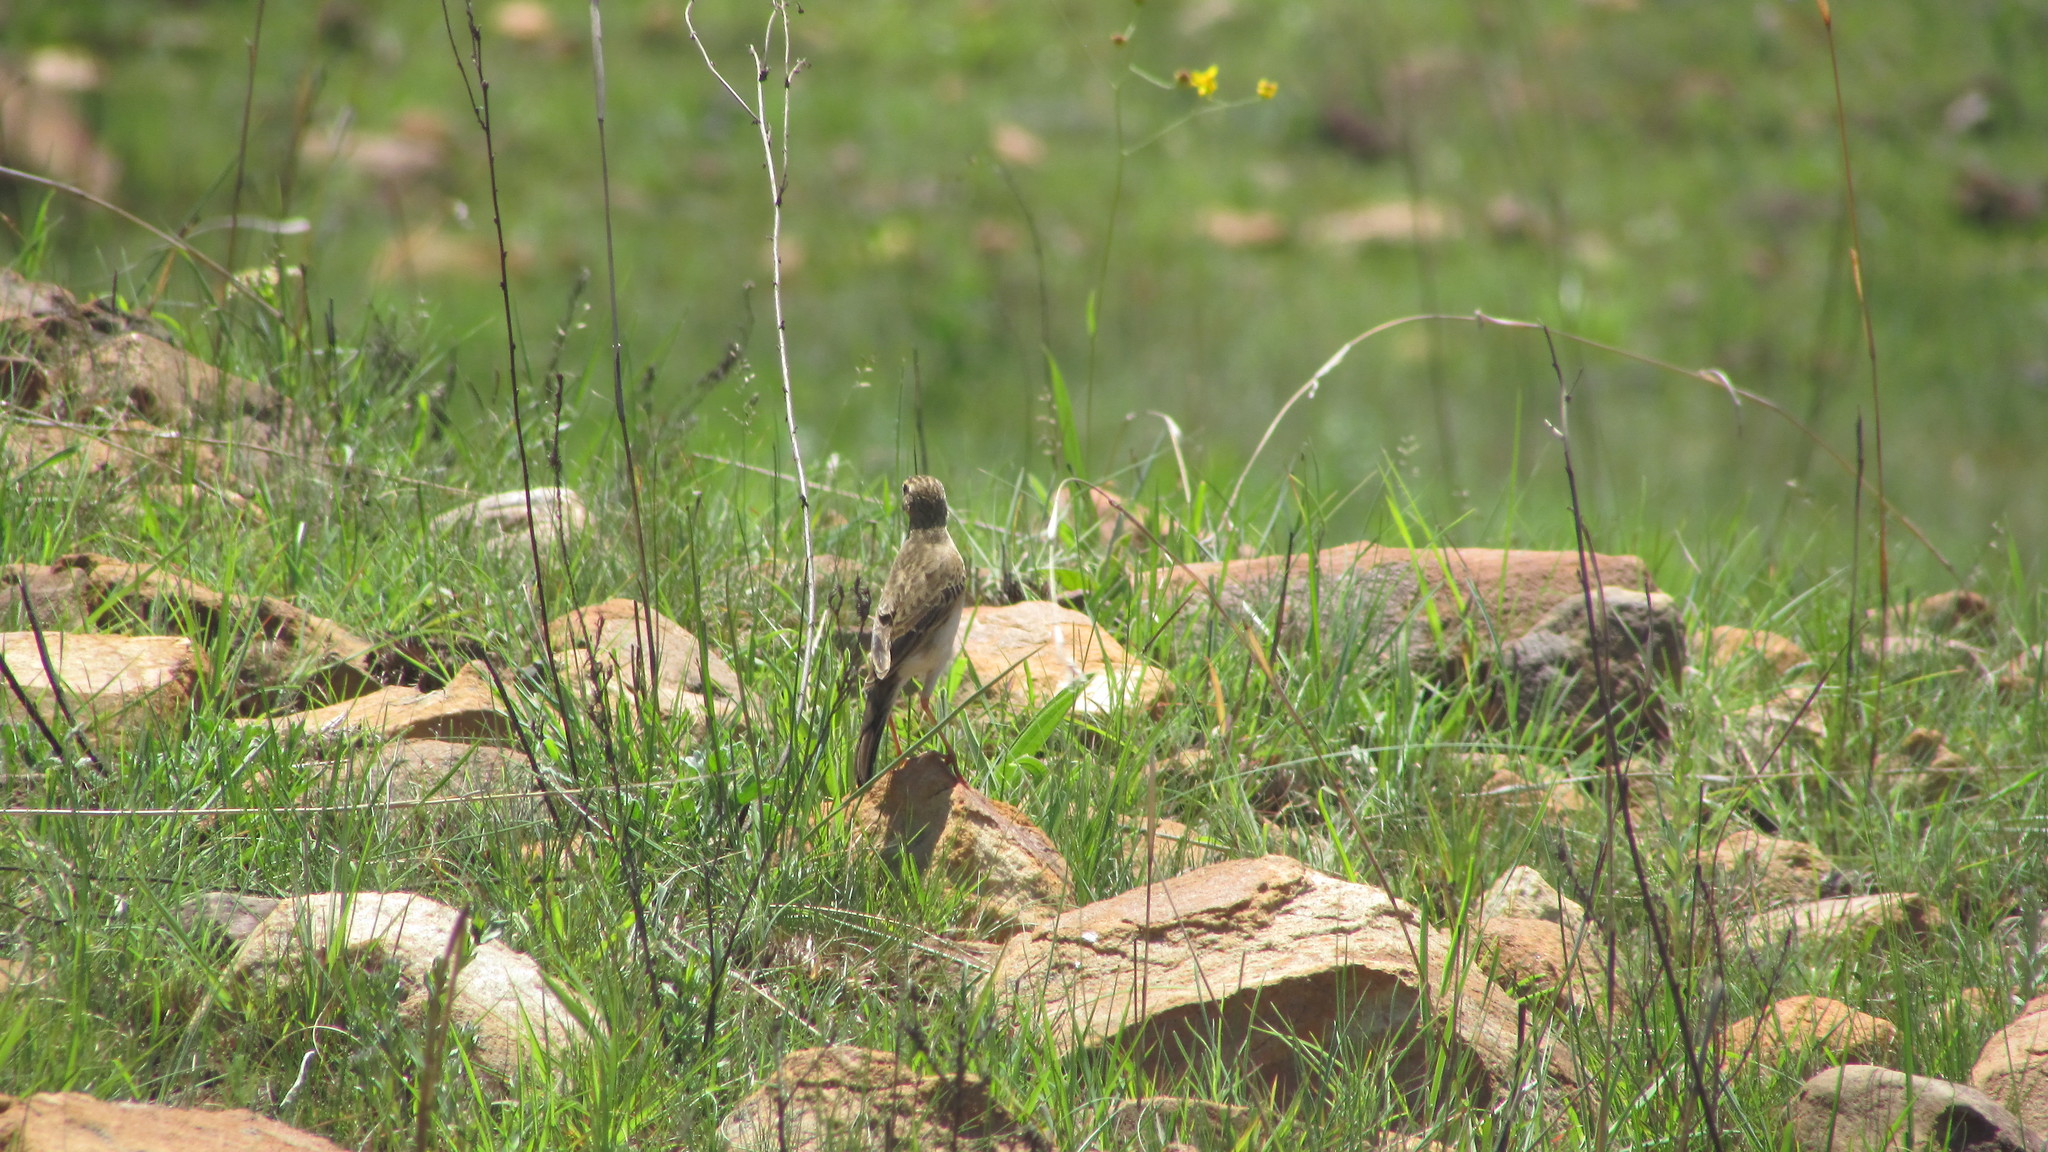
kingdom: Animalia
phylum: Chordata
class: Aves
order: Passeriformes
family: Motacillidae
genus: Anthus
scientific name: Anthus nicholsoni
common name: Nicholson's pipit
